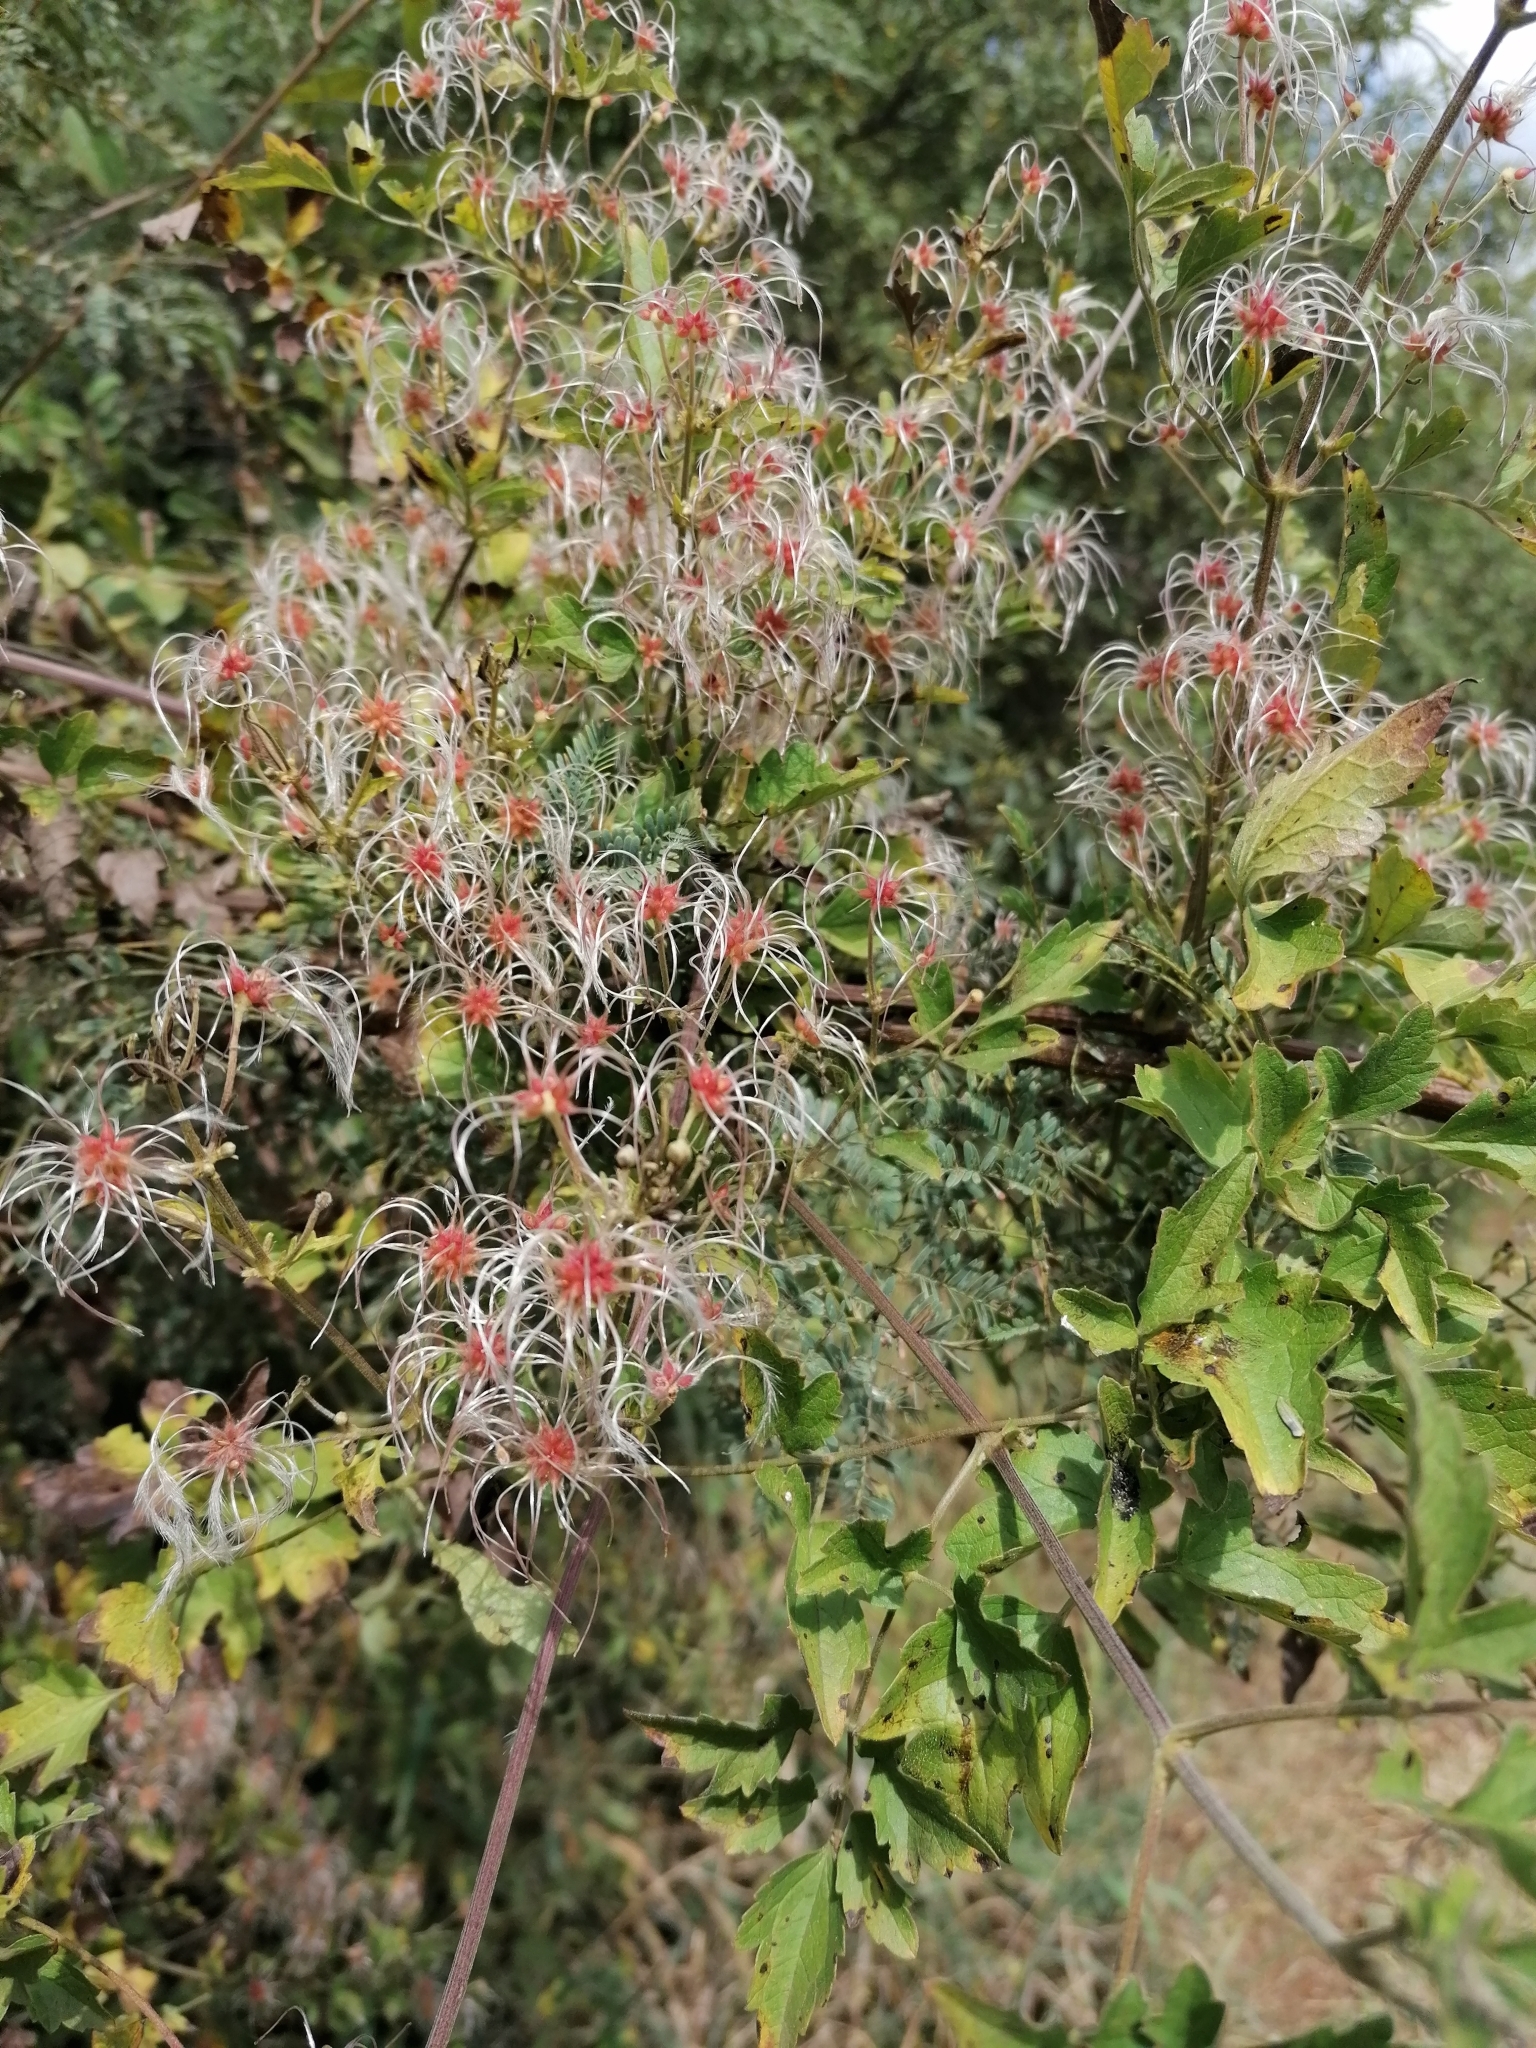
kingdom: Plantae
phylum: Tracheophyta
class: Magnoliopsida
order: Ranunculales
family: Ranunculaceae
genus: Clematis
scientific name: Clematis brachiata
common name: Traveler's-joy
